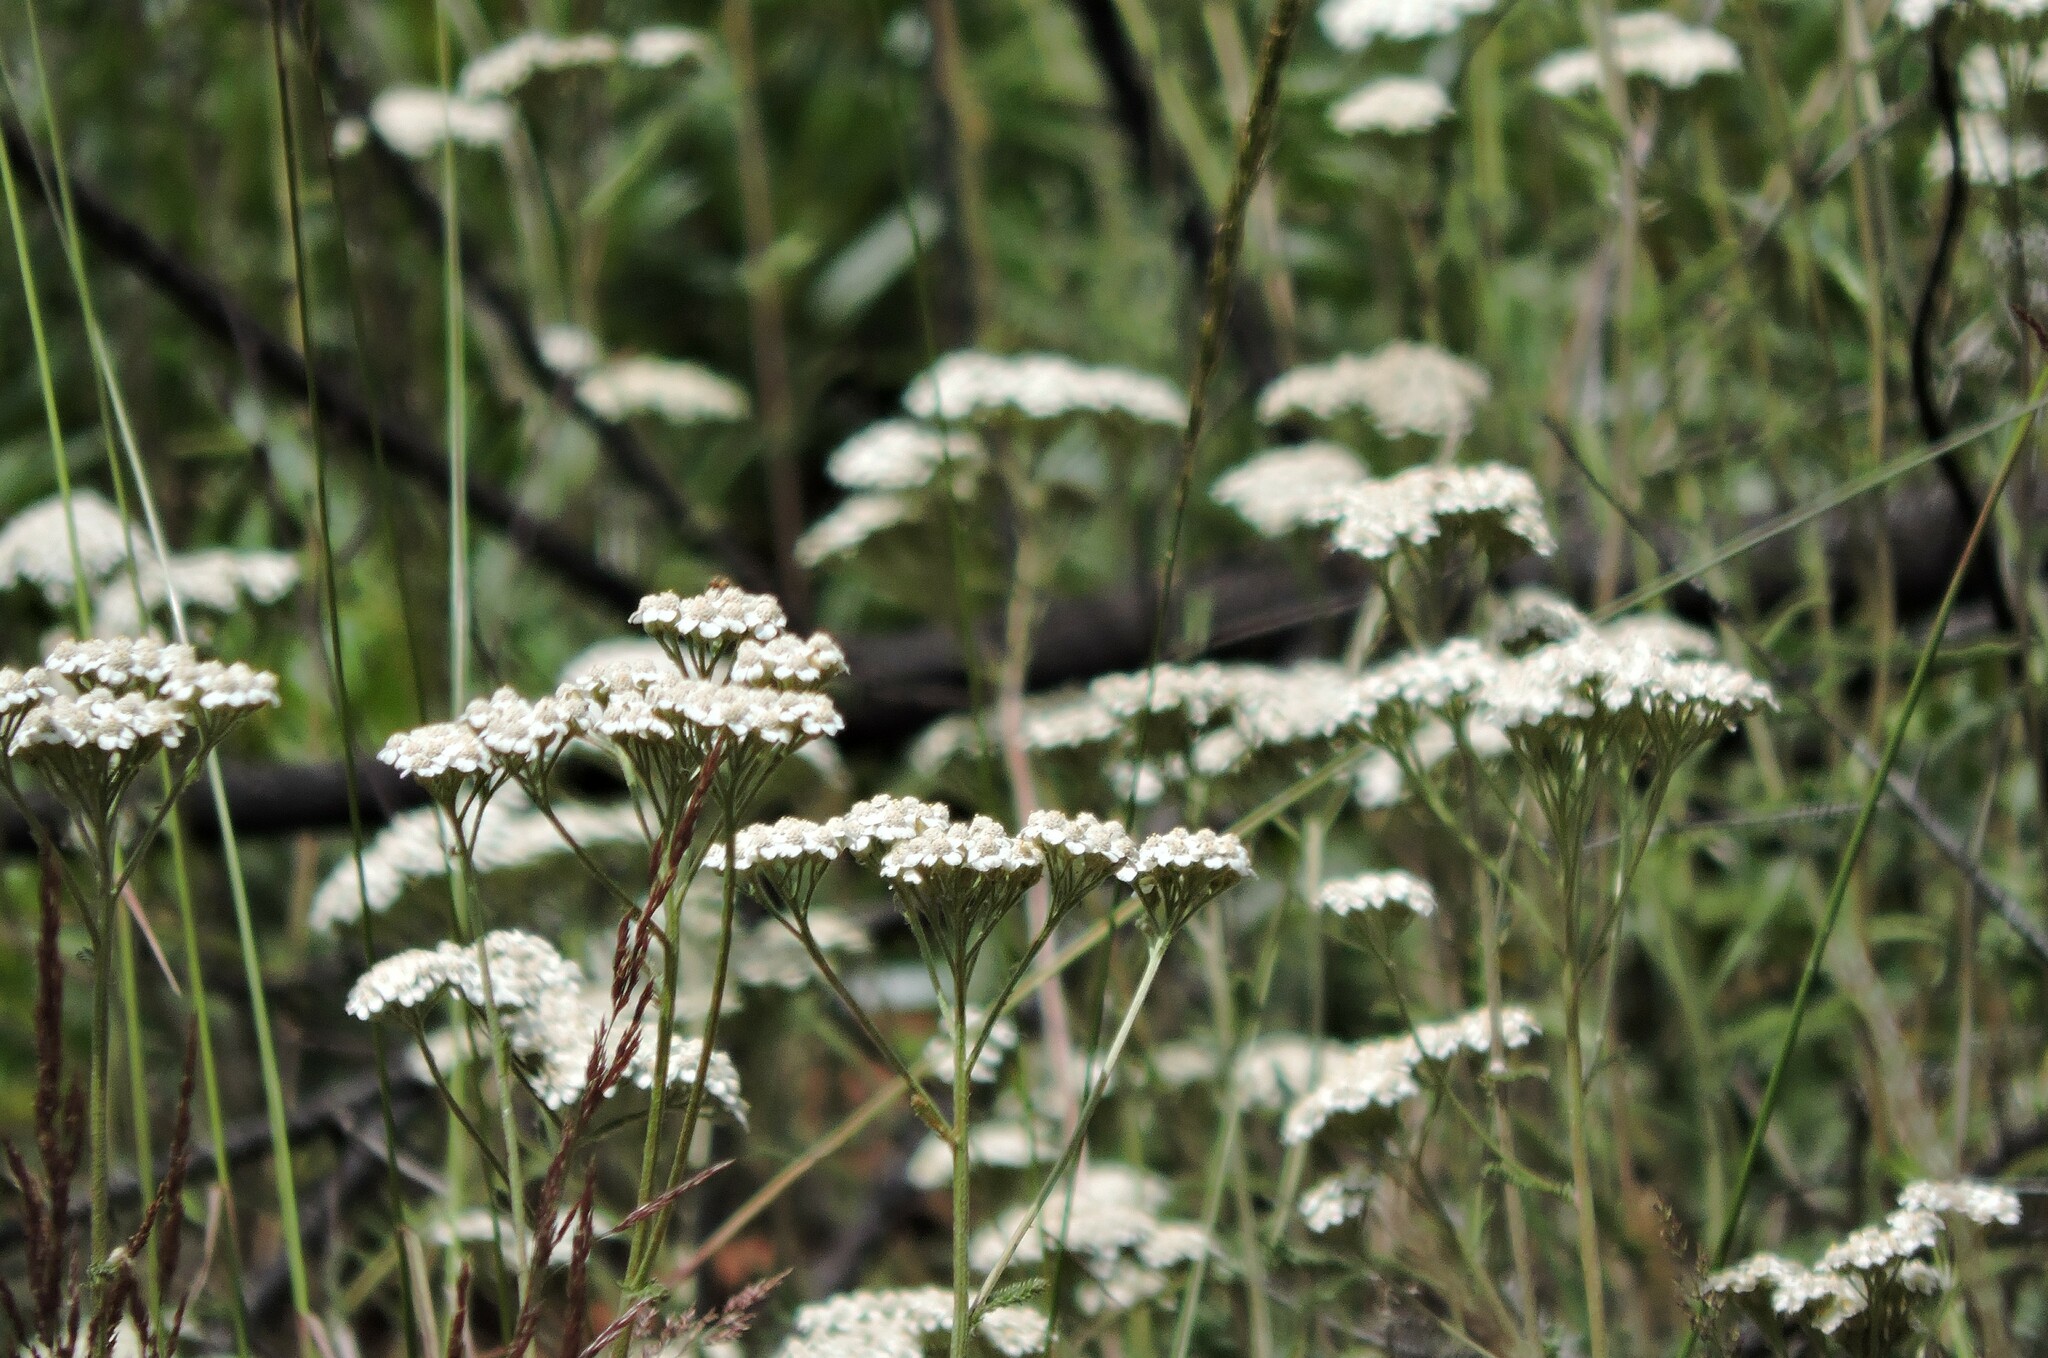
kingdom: Plantae
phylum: Tracheophyta
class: Magnoliopsida
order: Asterales
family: Asteraceae
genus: Achillea
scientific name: Achillea millefolium
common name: Yarrow
